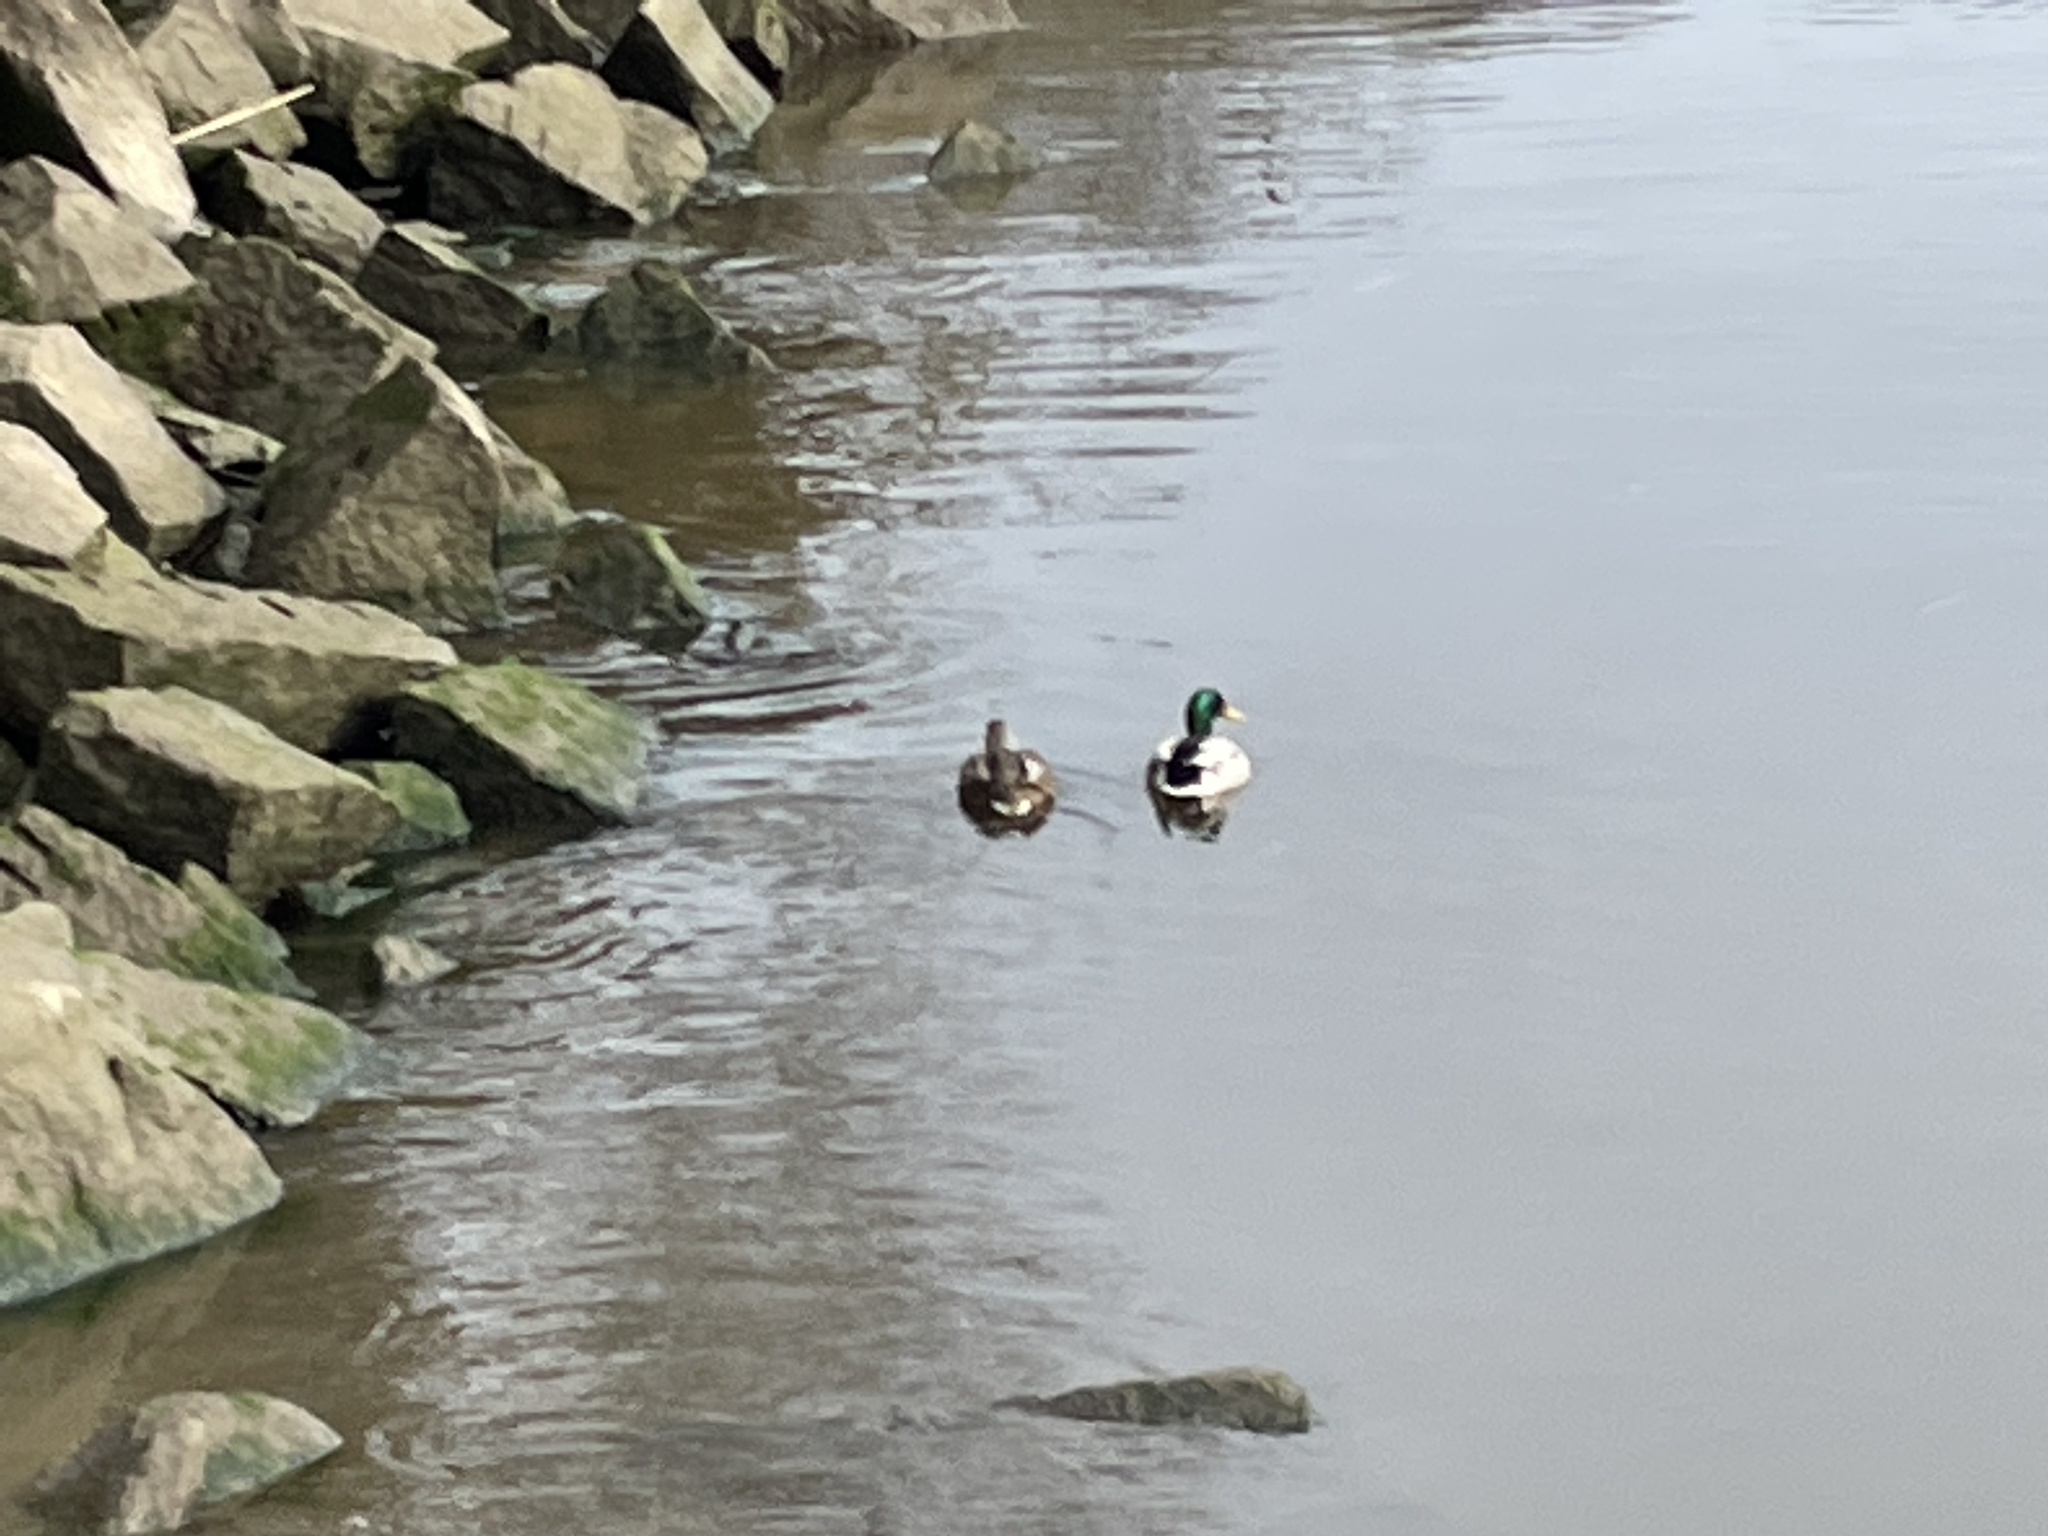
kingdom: Animalia
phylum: Chordata
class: Aves
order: Anseriformes
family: Anatidae
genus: Anas
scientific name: Anas platyrhynchos
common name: Mallard
